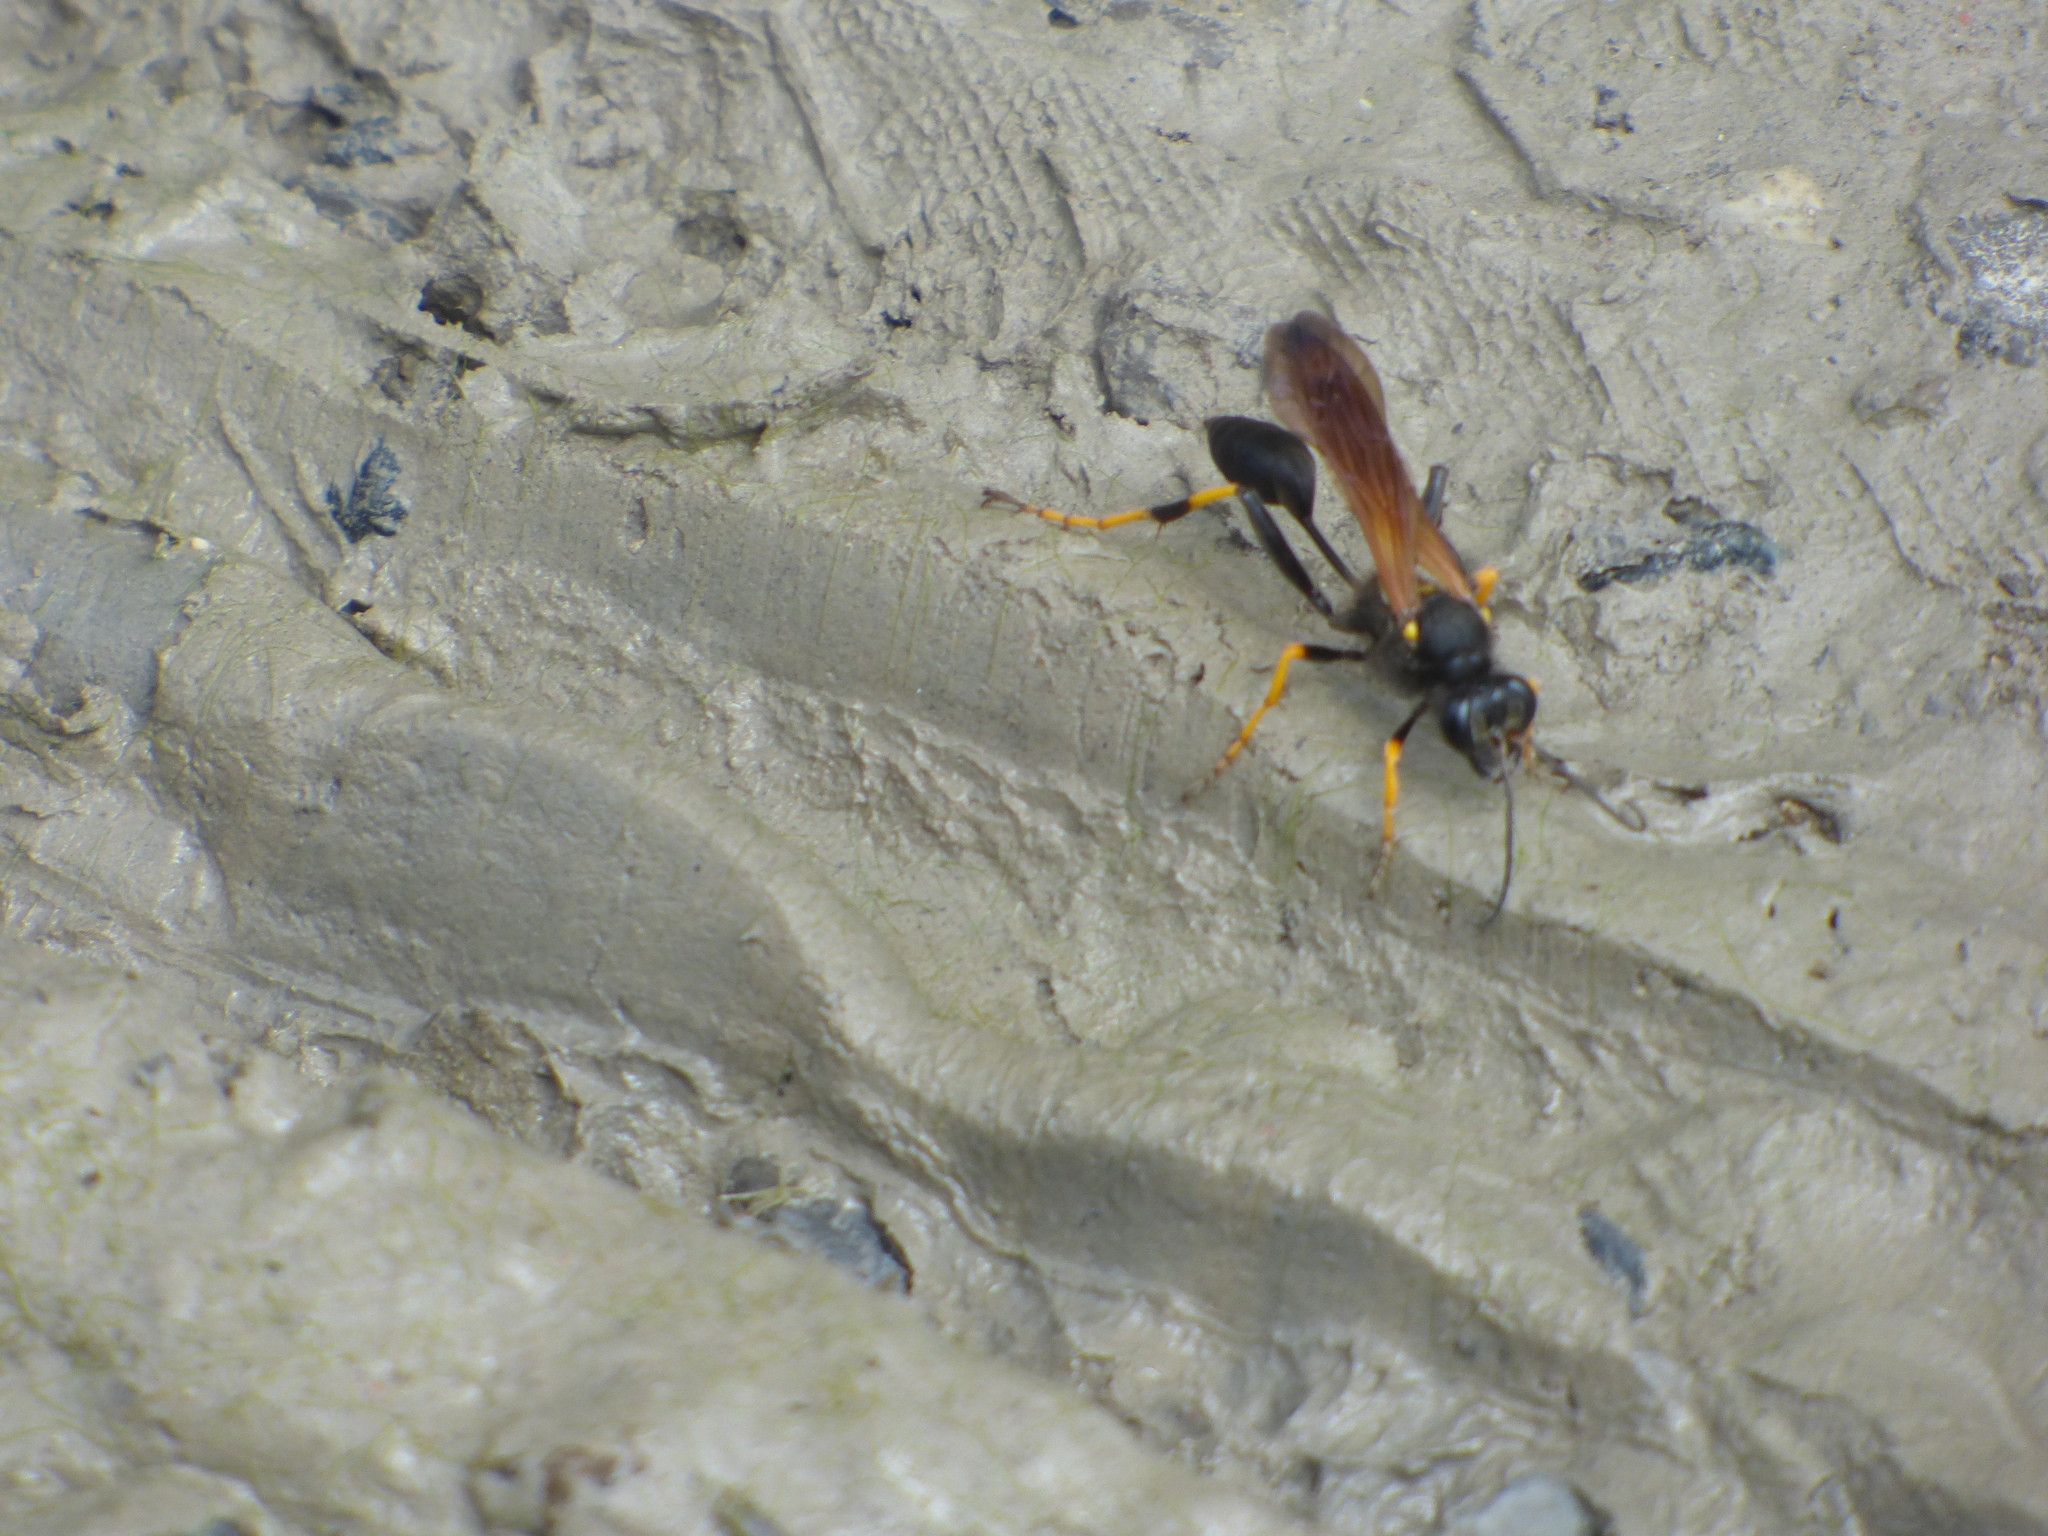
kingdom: Animalia
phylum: Arthropoda
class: Insecta
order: Hymenoptera
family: Sphecidae
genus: Sceliphron
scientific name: Sceliphron caementarium
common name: Mud dauber
